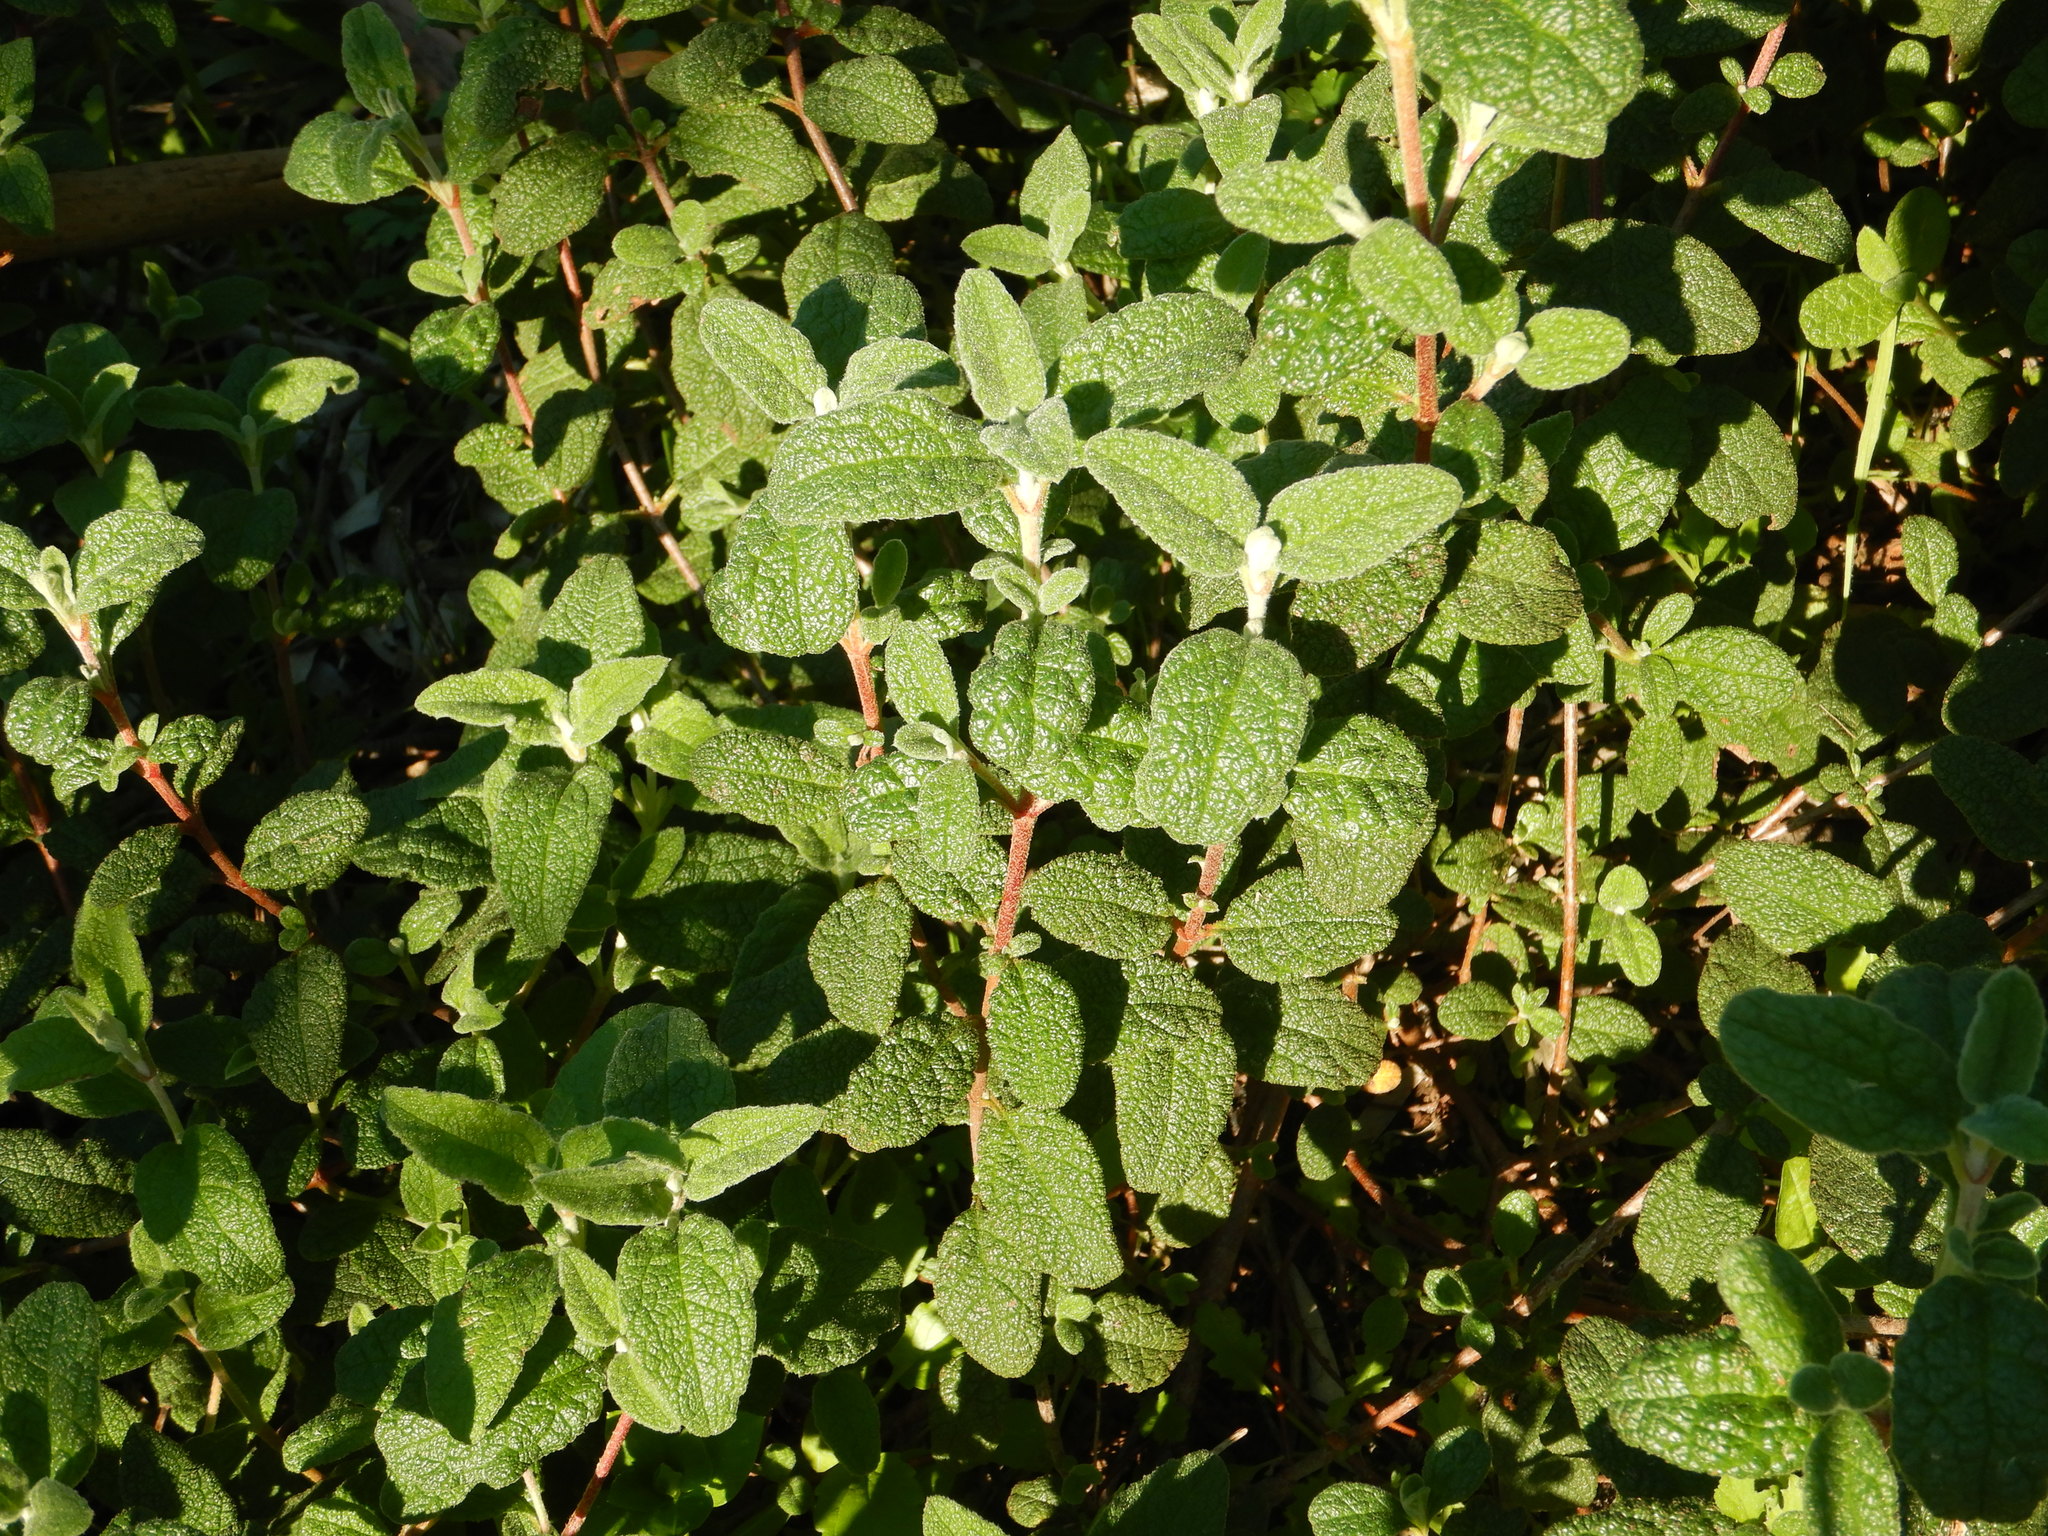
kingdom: Plantae
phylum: Tracheophyta
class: Magnoliopsida
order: Malvales
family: Cistaceae
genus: Cistus
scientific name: Cistus salviifolius
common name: Salvia cistus
